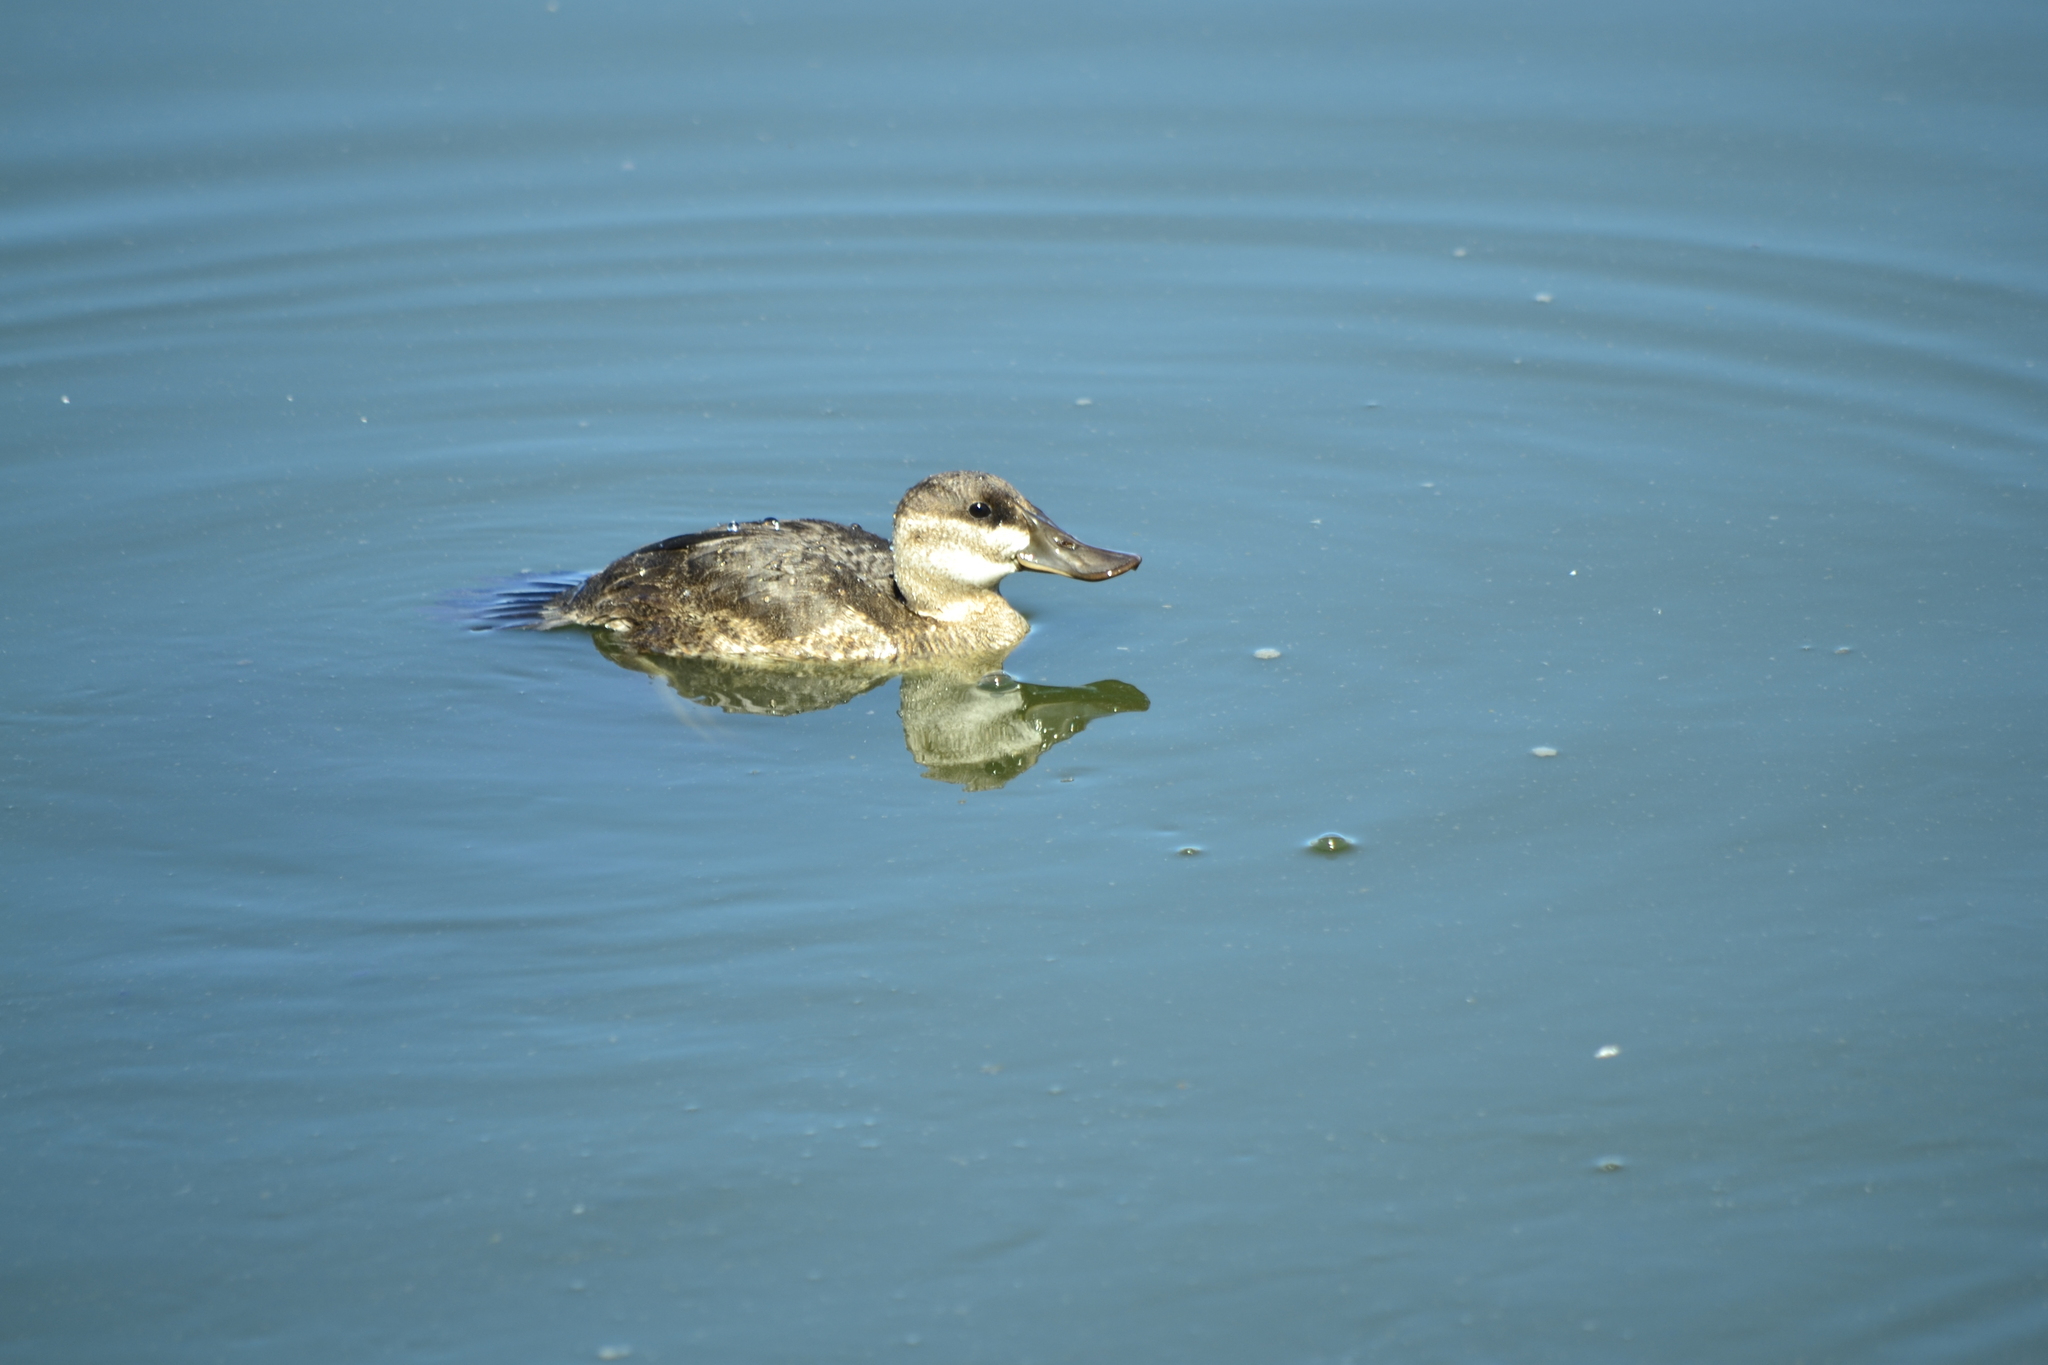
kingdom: Animalia
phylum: Chordata
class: Aves
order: Anseriformes
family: Anatidae
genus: Oxyura
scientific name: Oxyura jamaicensis
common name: Ruddy duck
